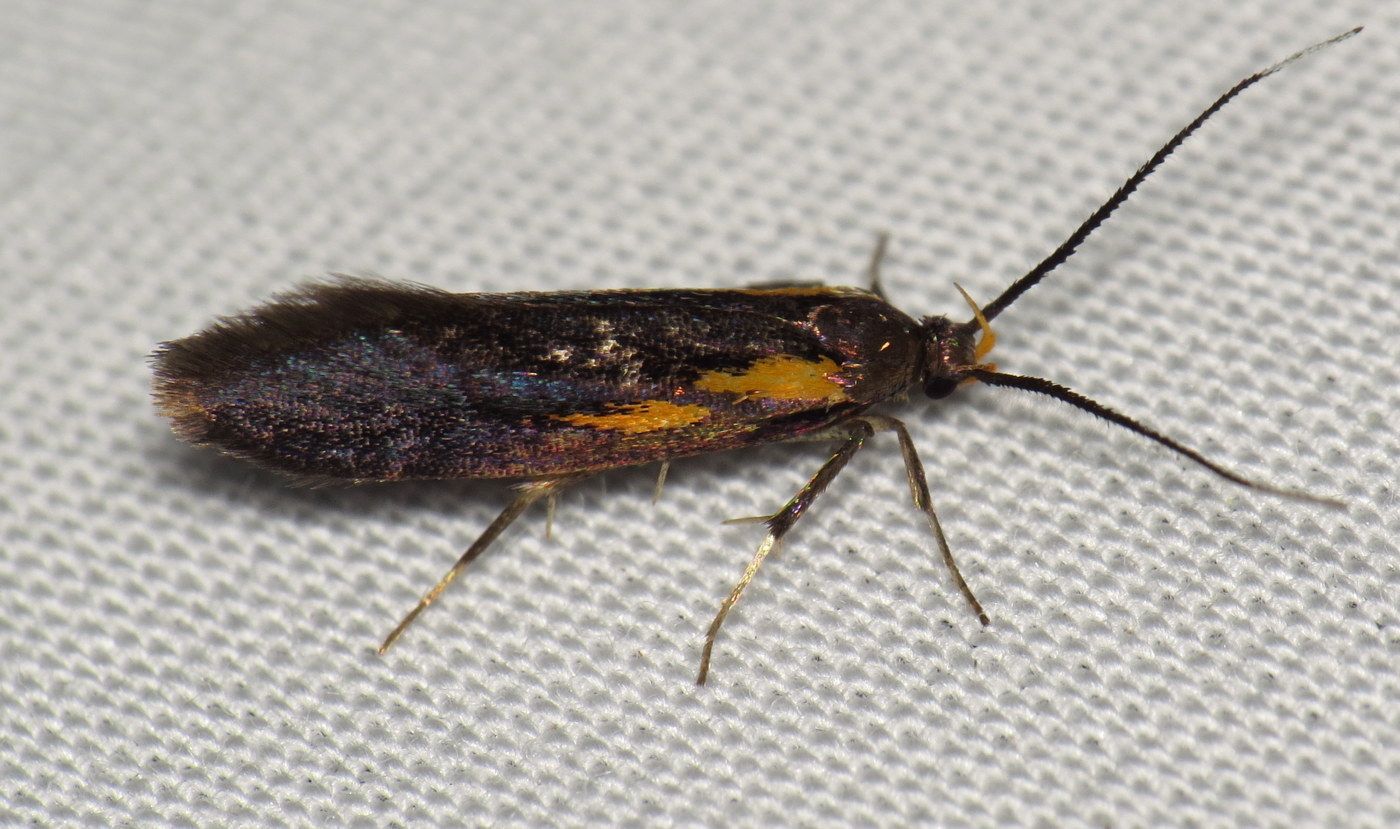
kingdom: Animalia
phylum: Arthropoda
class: Insecta
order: Lepidoptera
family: Oecophoridae
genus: Mathildana
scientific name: Mathildana newmanella
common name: Newman's mathildana moth
